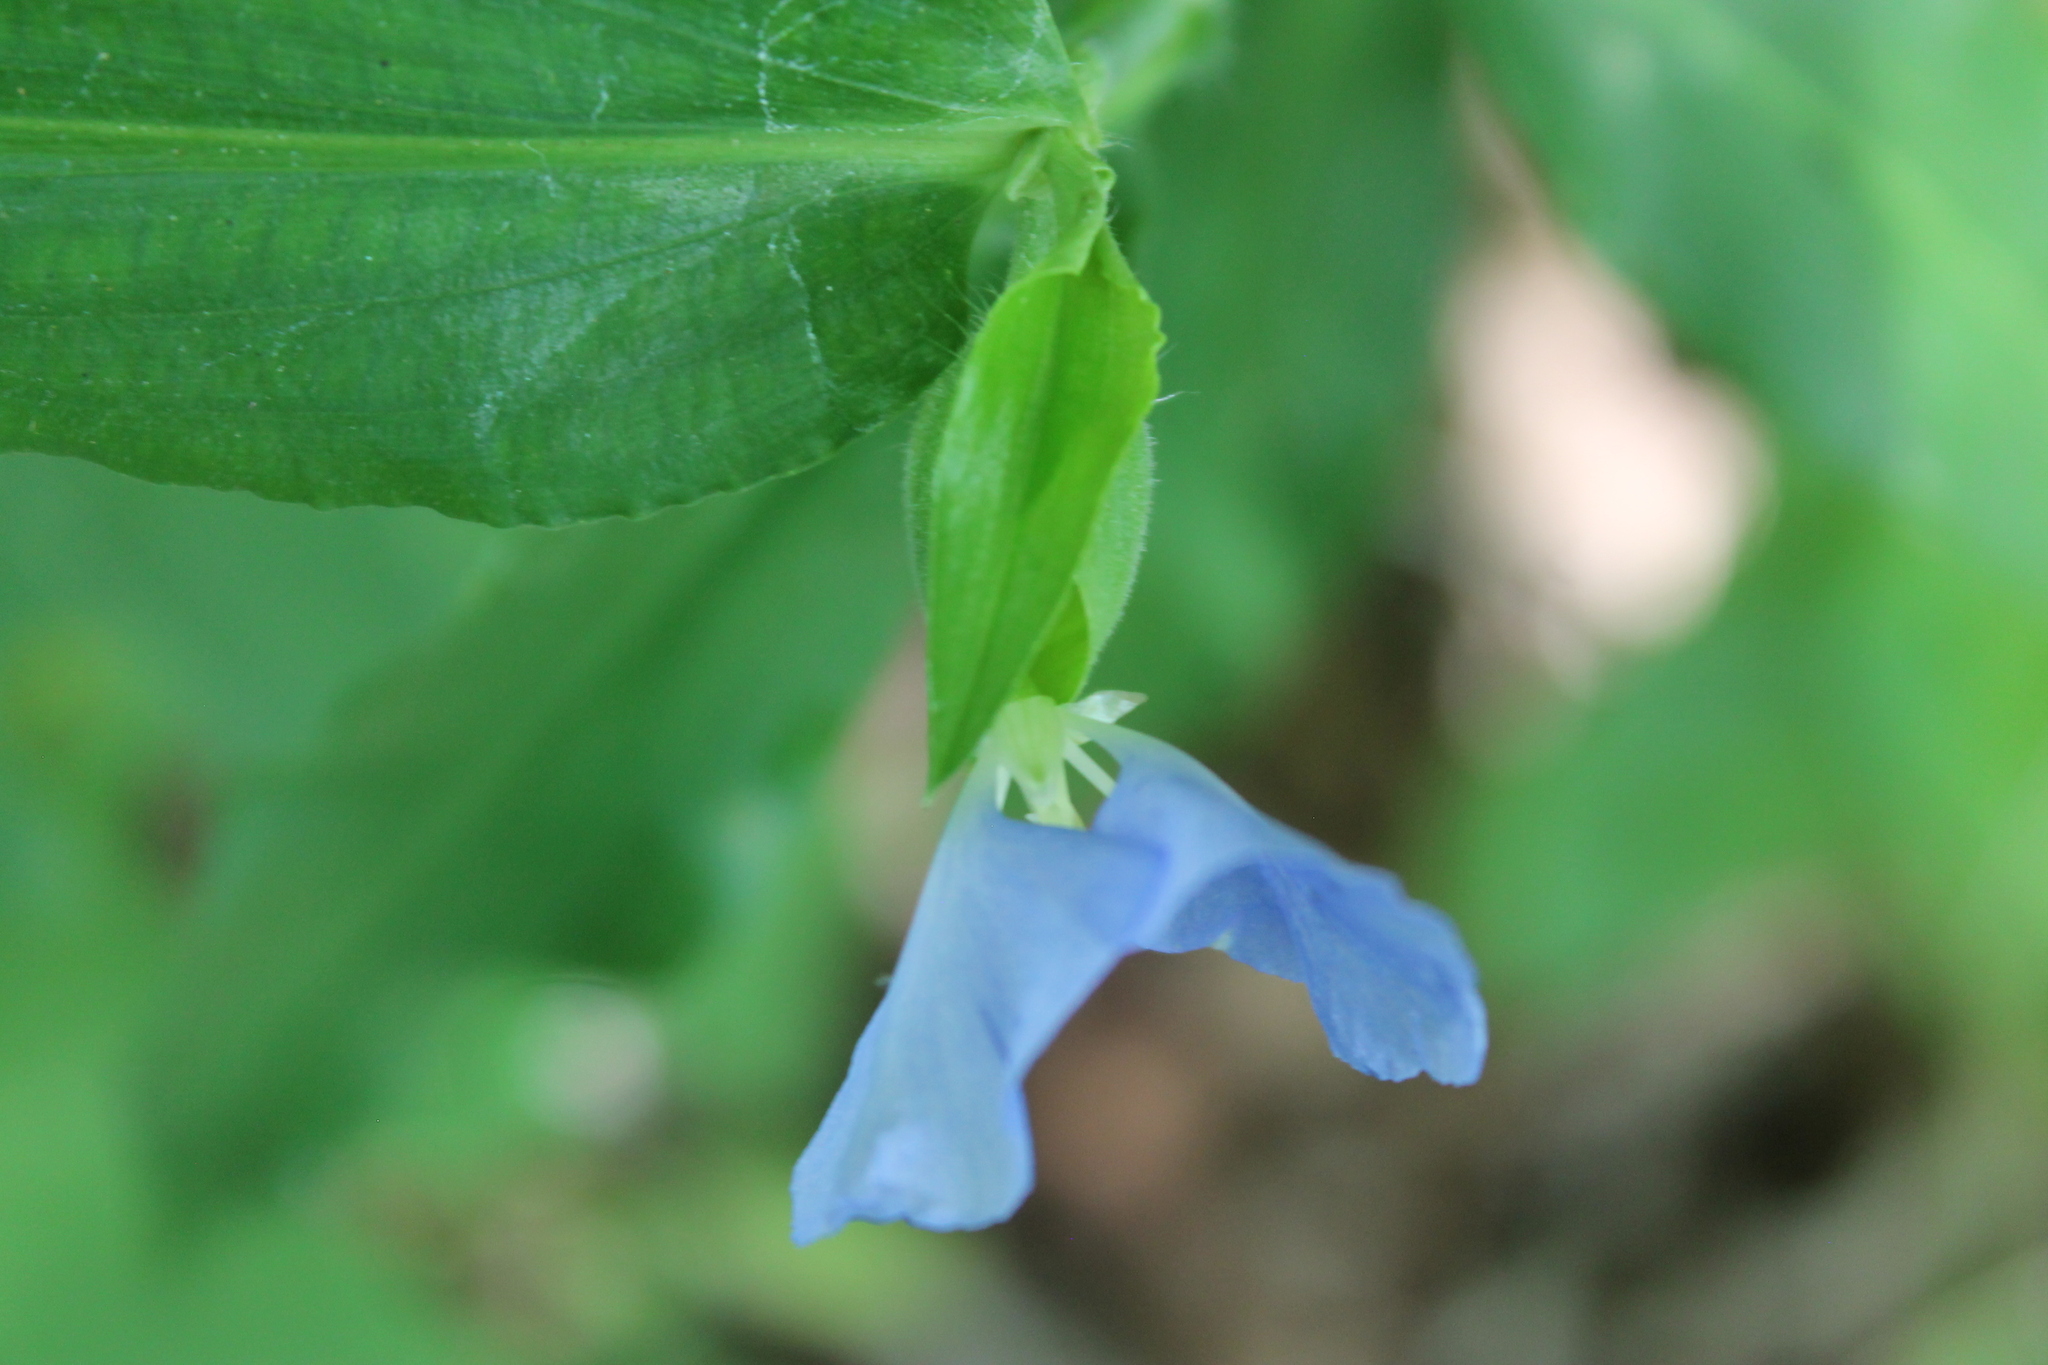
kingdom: Plantae
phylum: Tracheophyta
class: Liliopsida
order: Commelinales
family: Commelinaceae
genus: Commelina
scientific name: Commelina erecta
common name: Blousel blommetjie
